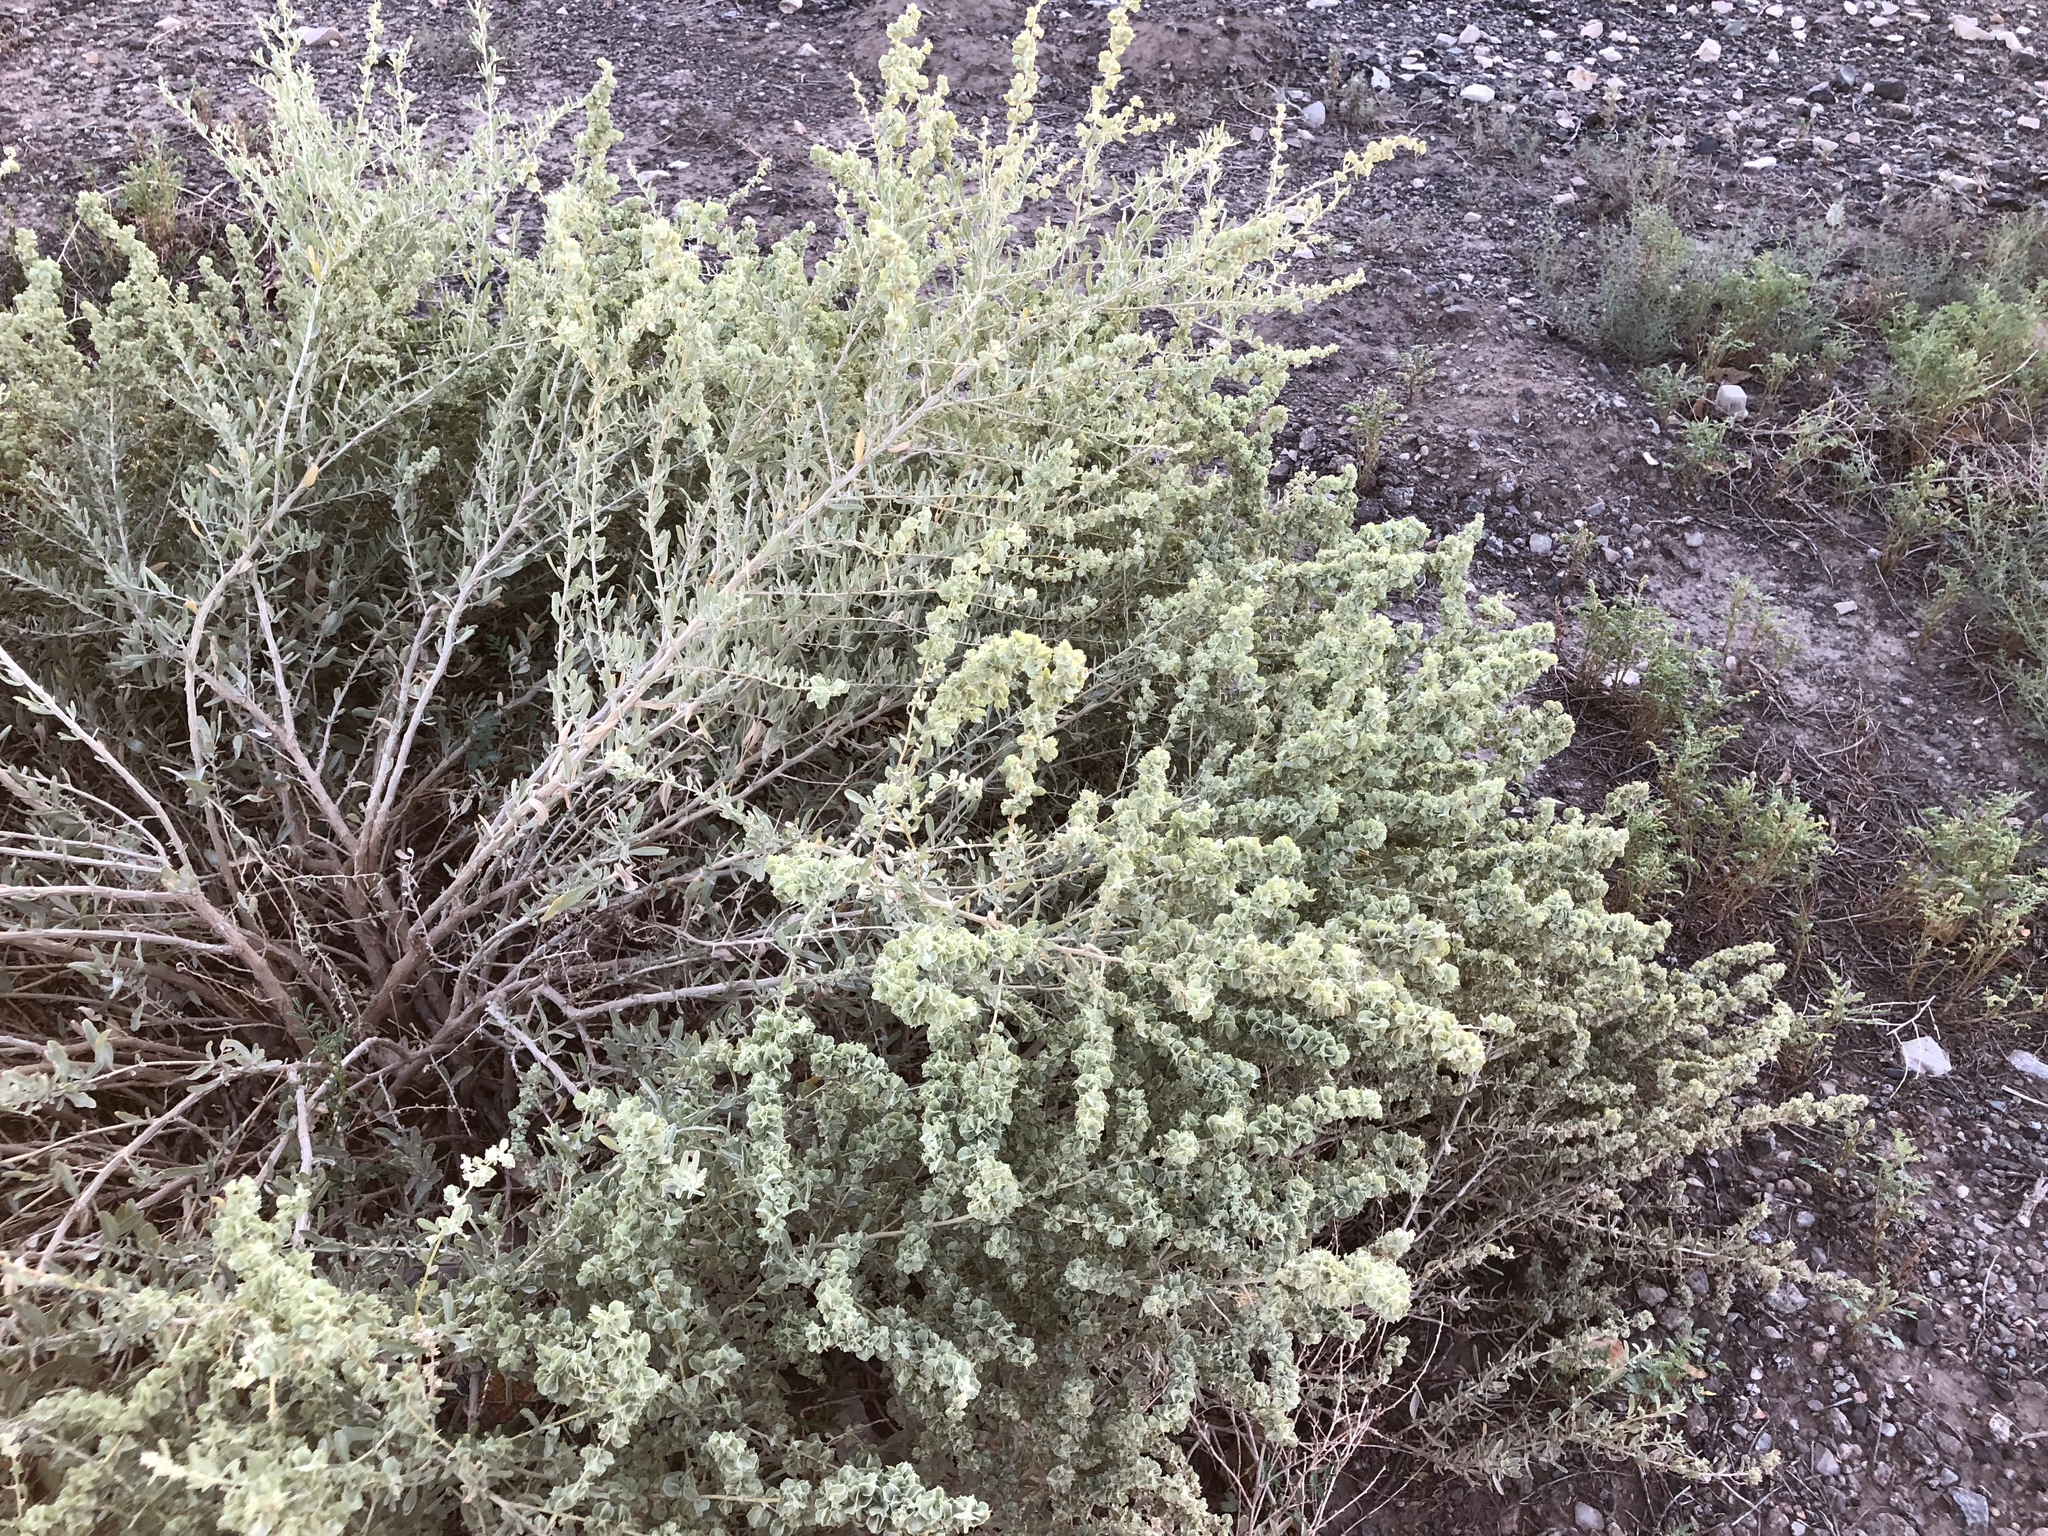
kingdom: Plantae
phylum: Tracheophyta
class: Magnoliopsida
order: Caryophyllales
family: Amaranthaceae
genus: Atriplex
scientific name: Atriplex canescens
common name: Four-wing saltbush
